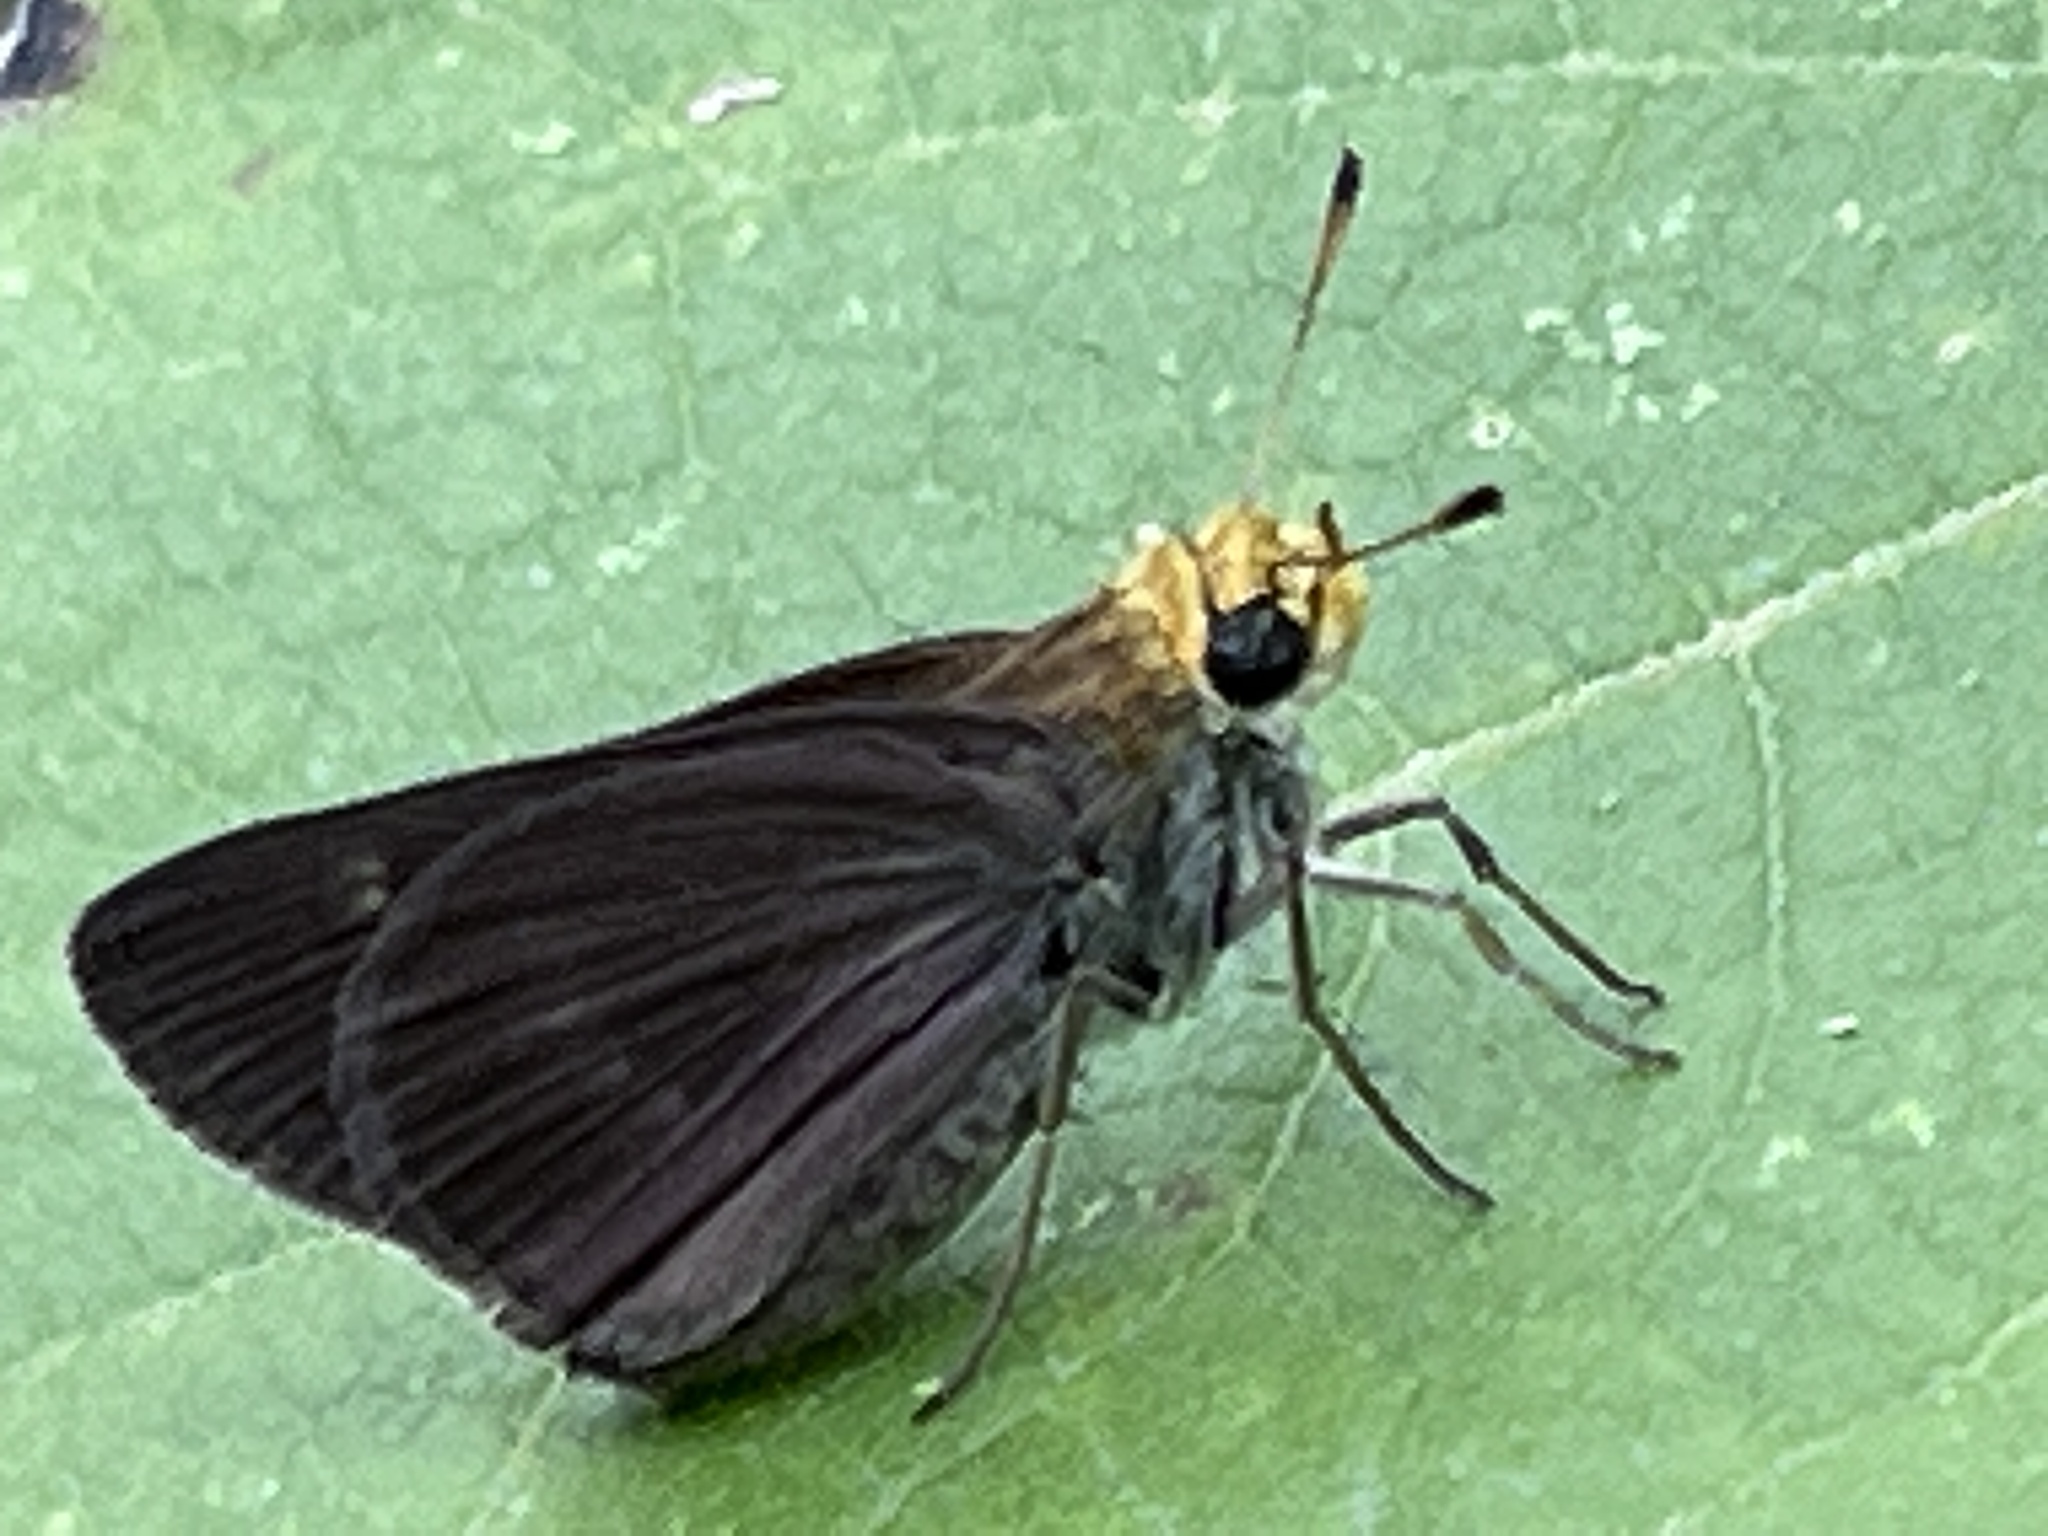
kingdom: Animalia
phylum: Arthropoda
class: Insecta
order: Lepidoptera
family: Hesperiidae
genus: Euphyes
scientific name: Euphyes vestris
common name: Dun skipper
